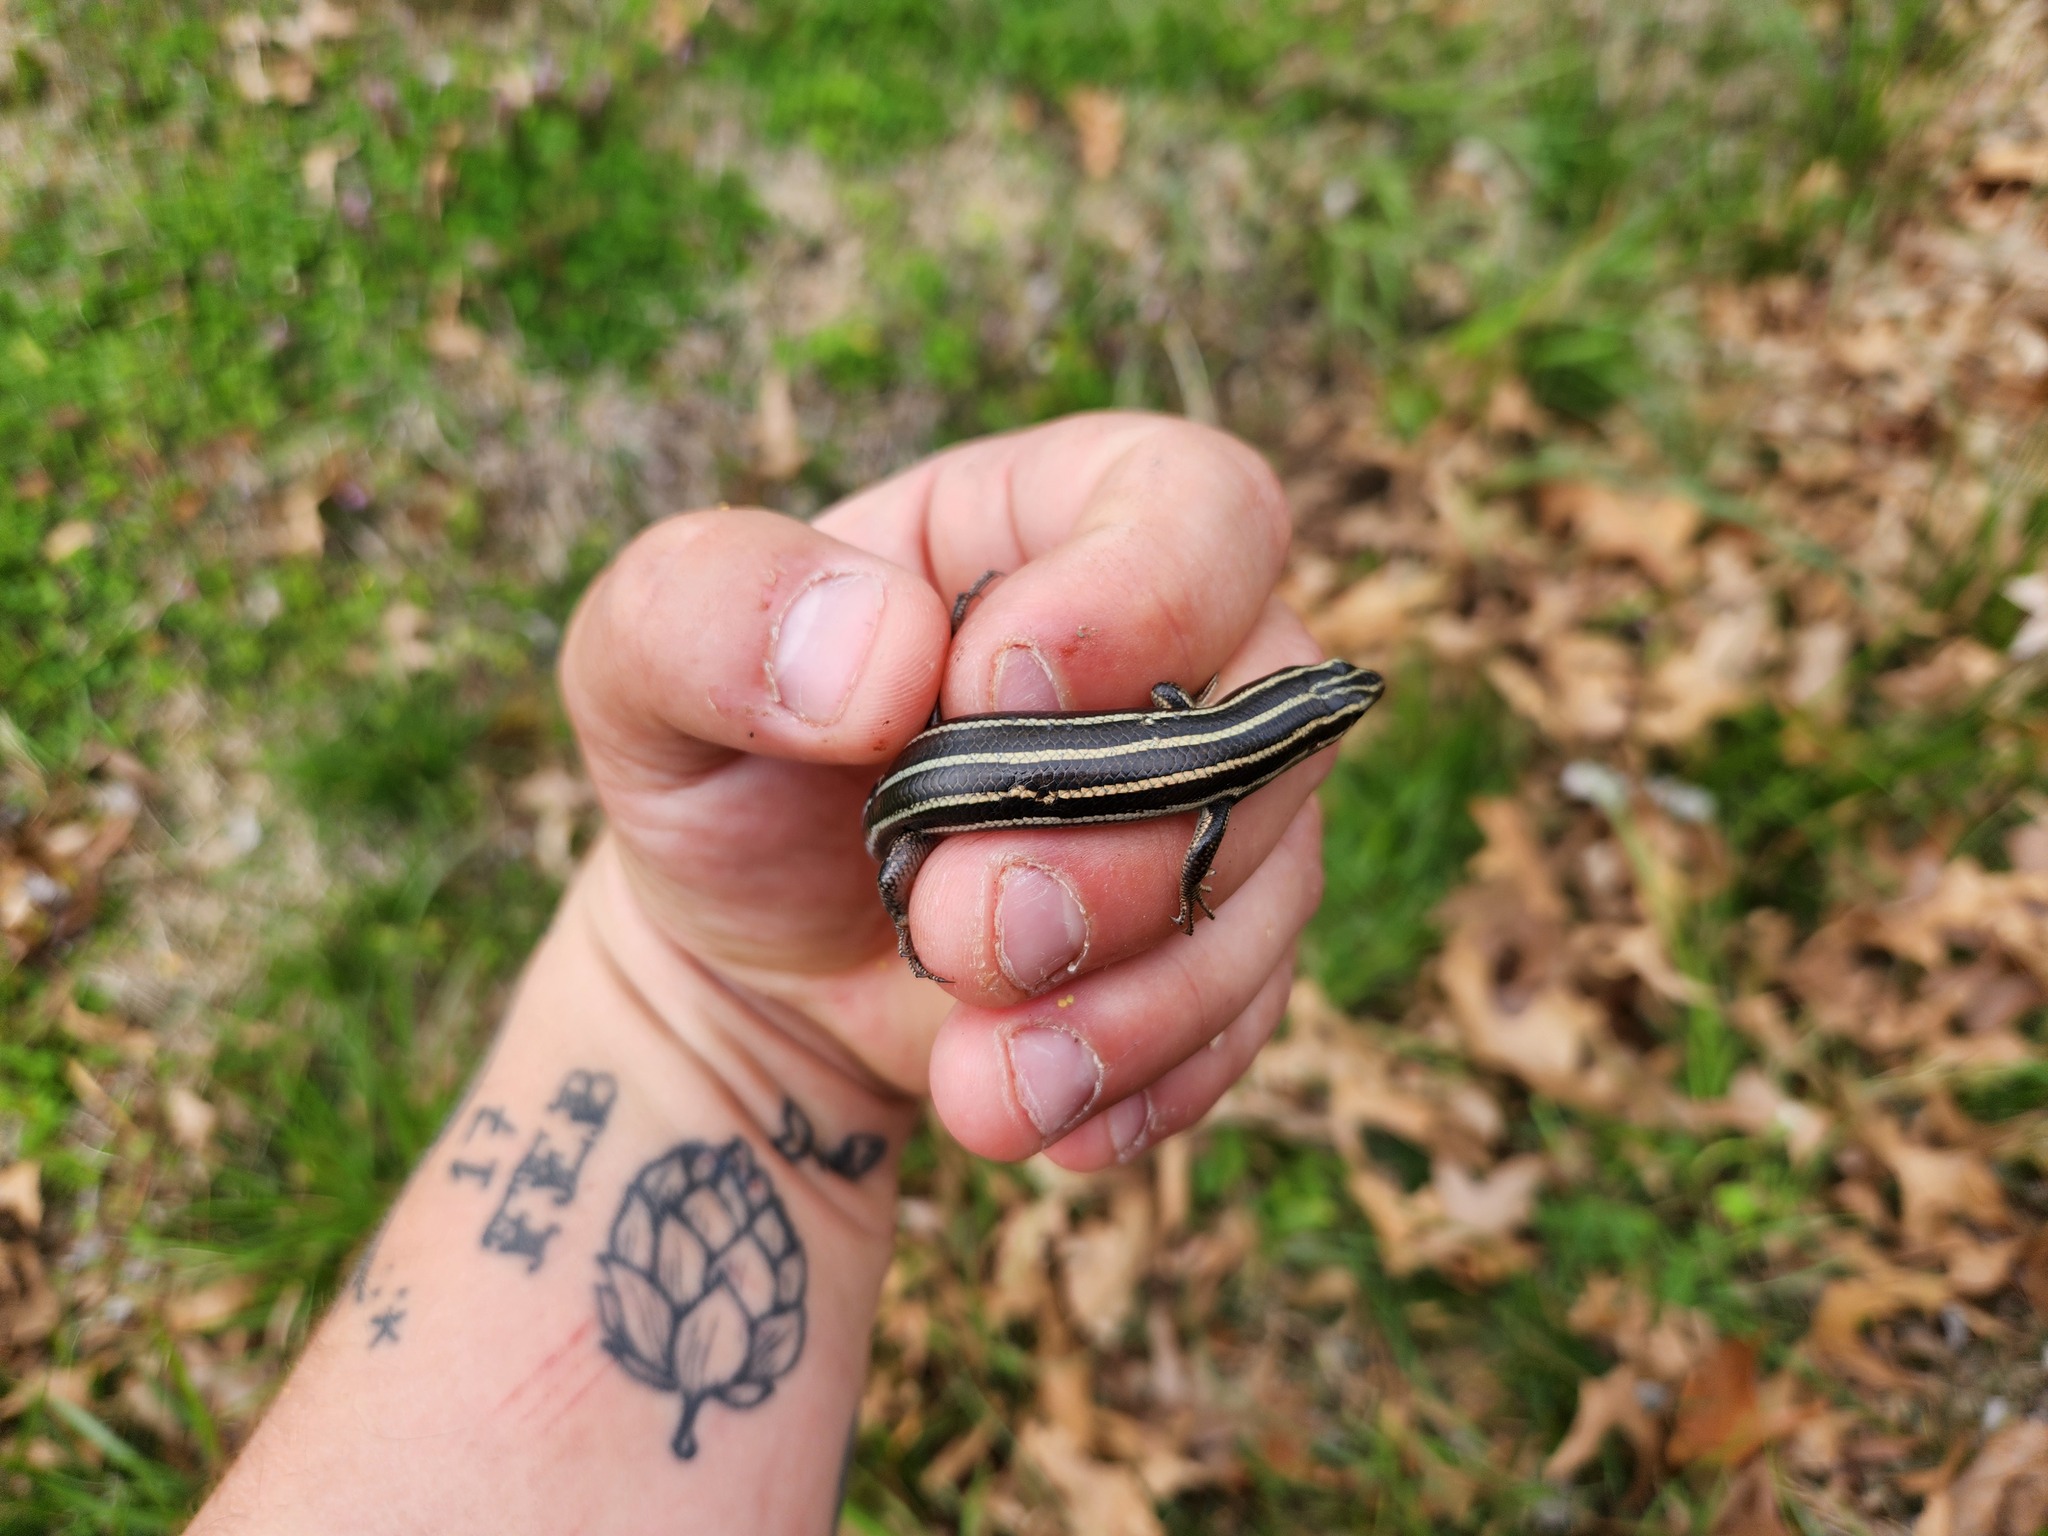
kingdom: Animalia
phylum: Chordata
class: Squamata
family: Scincidae
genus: Plestiodon
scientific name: Plestiodon fasciatus
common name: Five-lined skink
